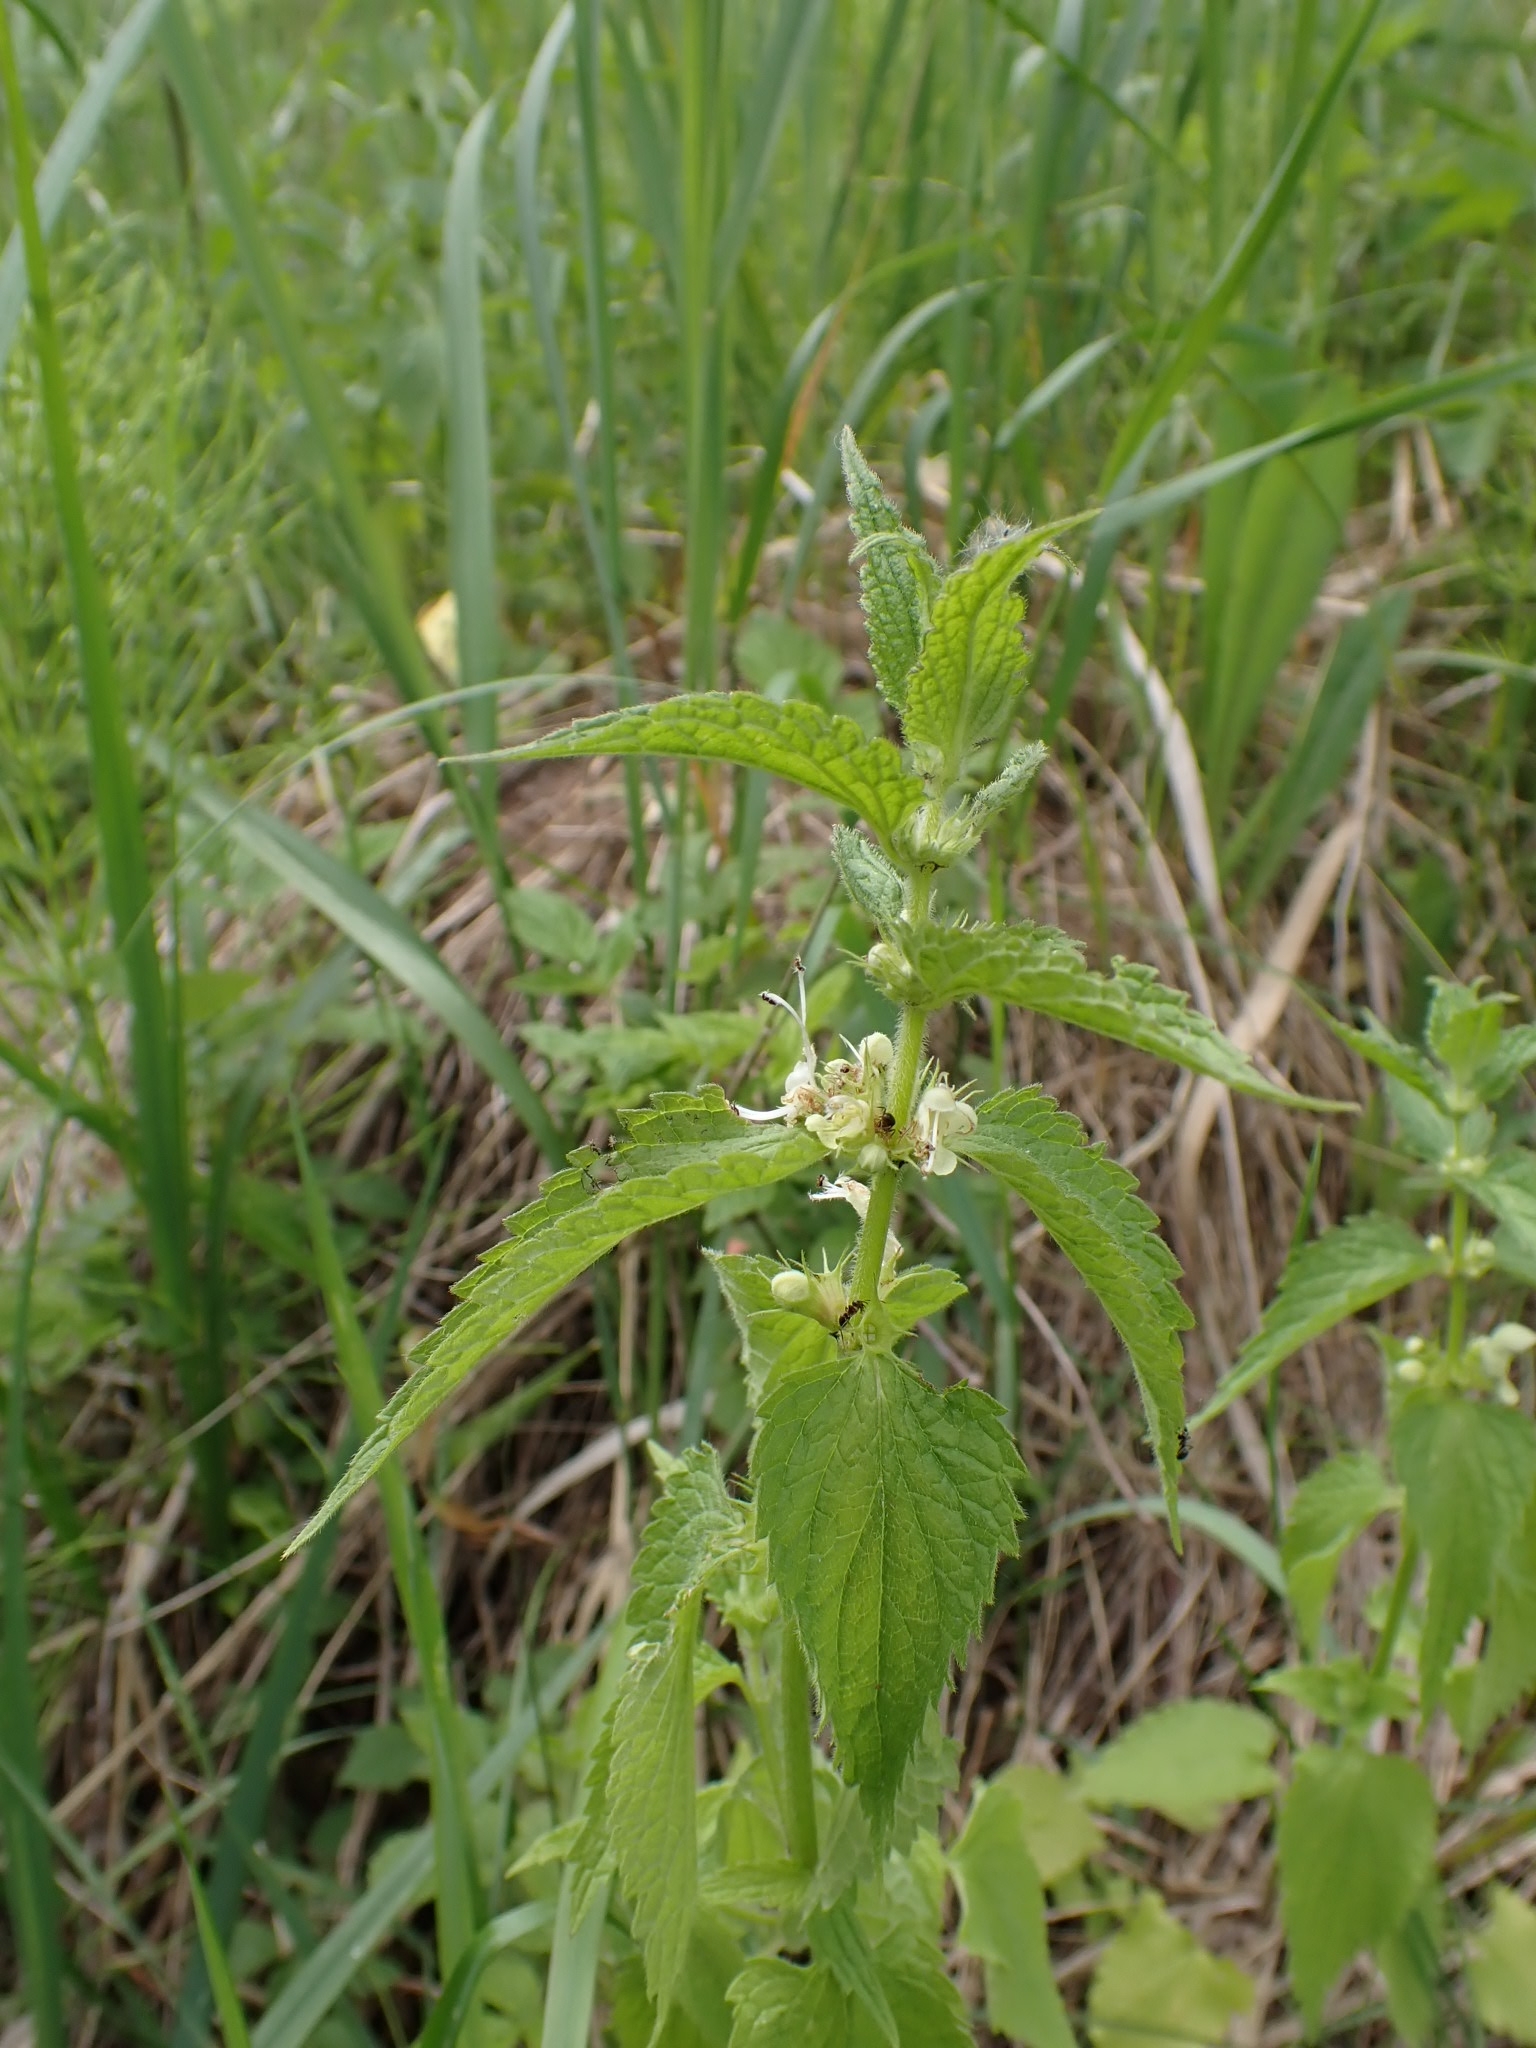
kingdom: Plantae
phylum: Tracheophyta
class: Magnoliopsida
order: Lamiales
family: Lamiaceae
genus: Lamium
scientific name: Lamium album
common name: White dead-nettle
